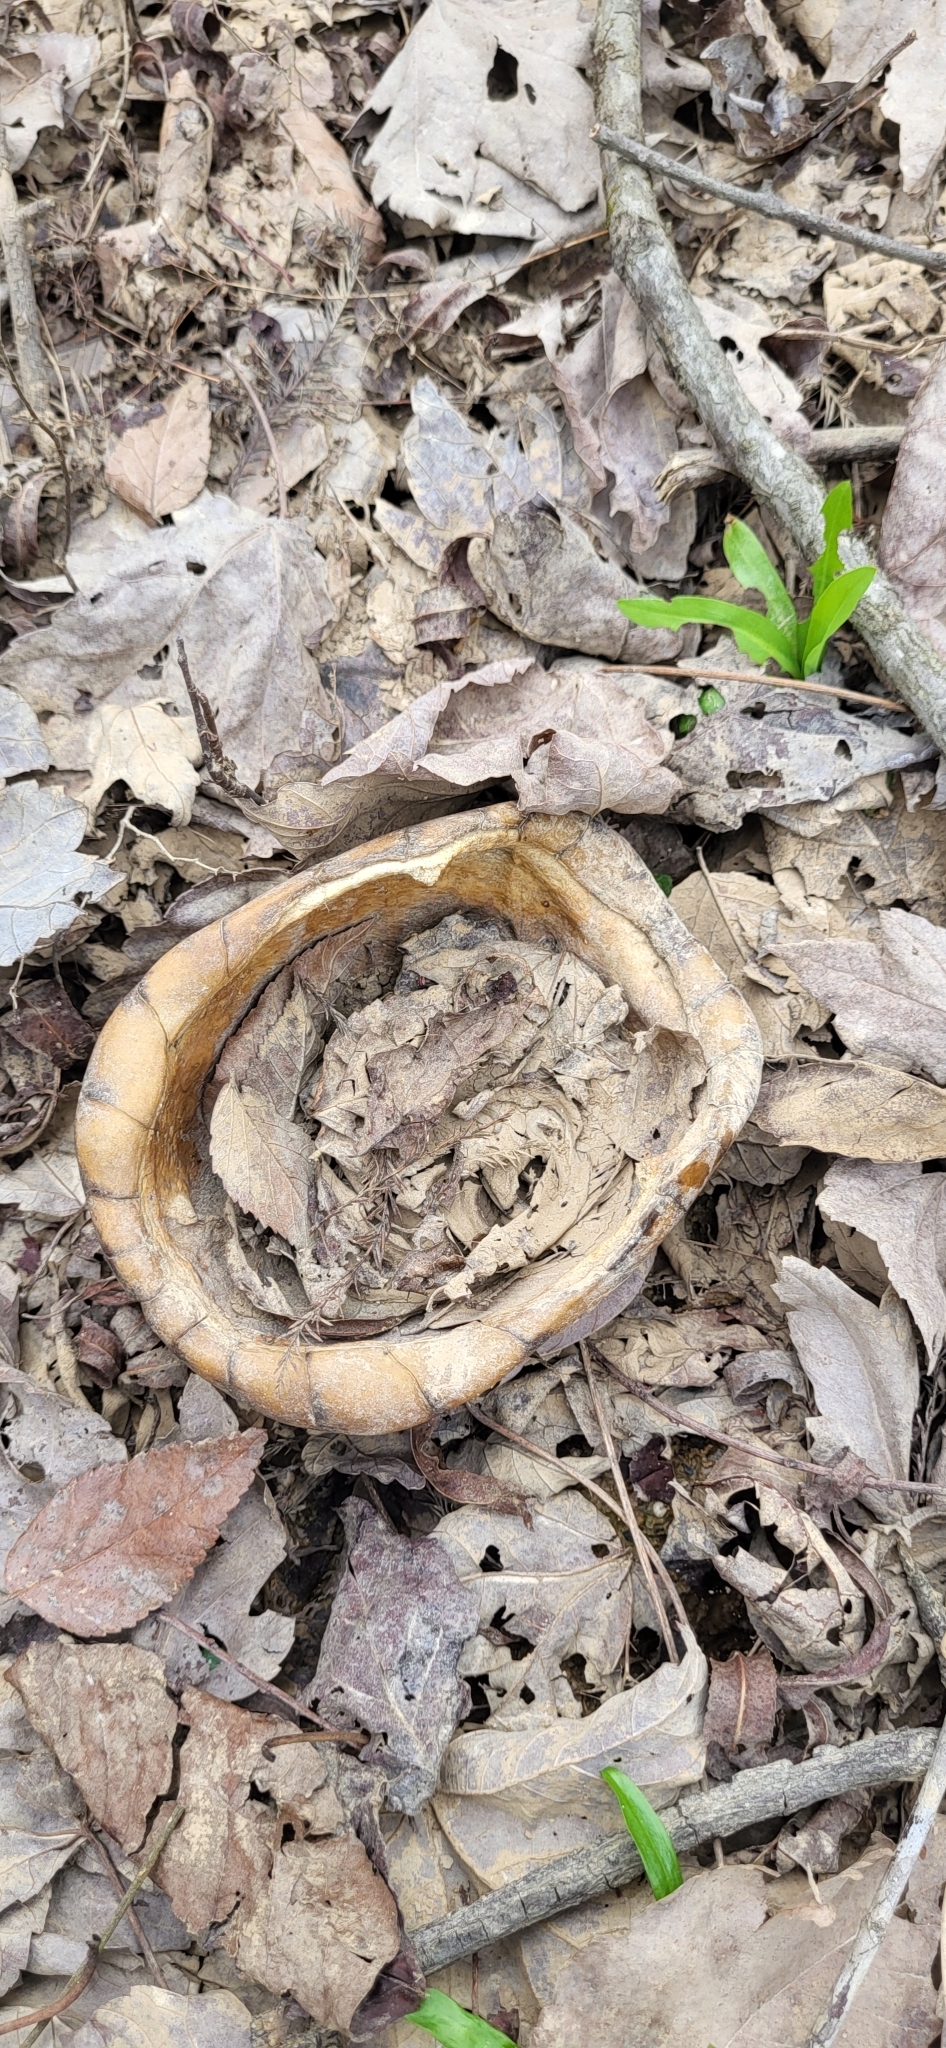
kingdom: Animalia
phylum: Chordata
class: Testudines
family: Emydidae
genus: Terrapene
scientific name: Terrapene carolina
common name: Common box turtle
